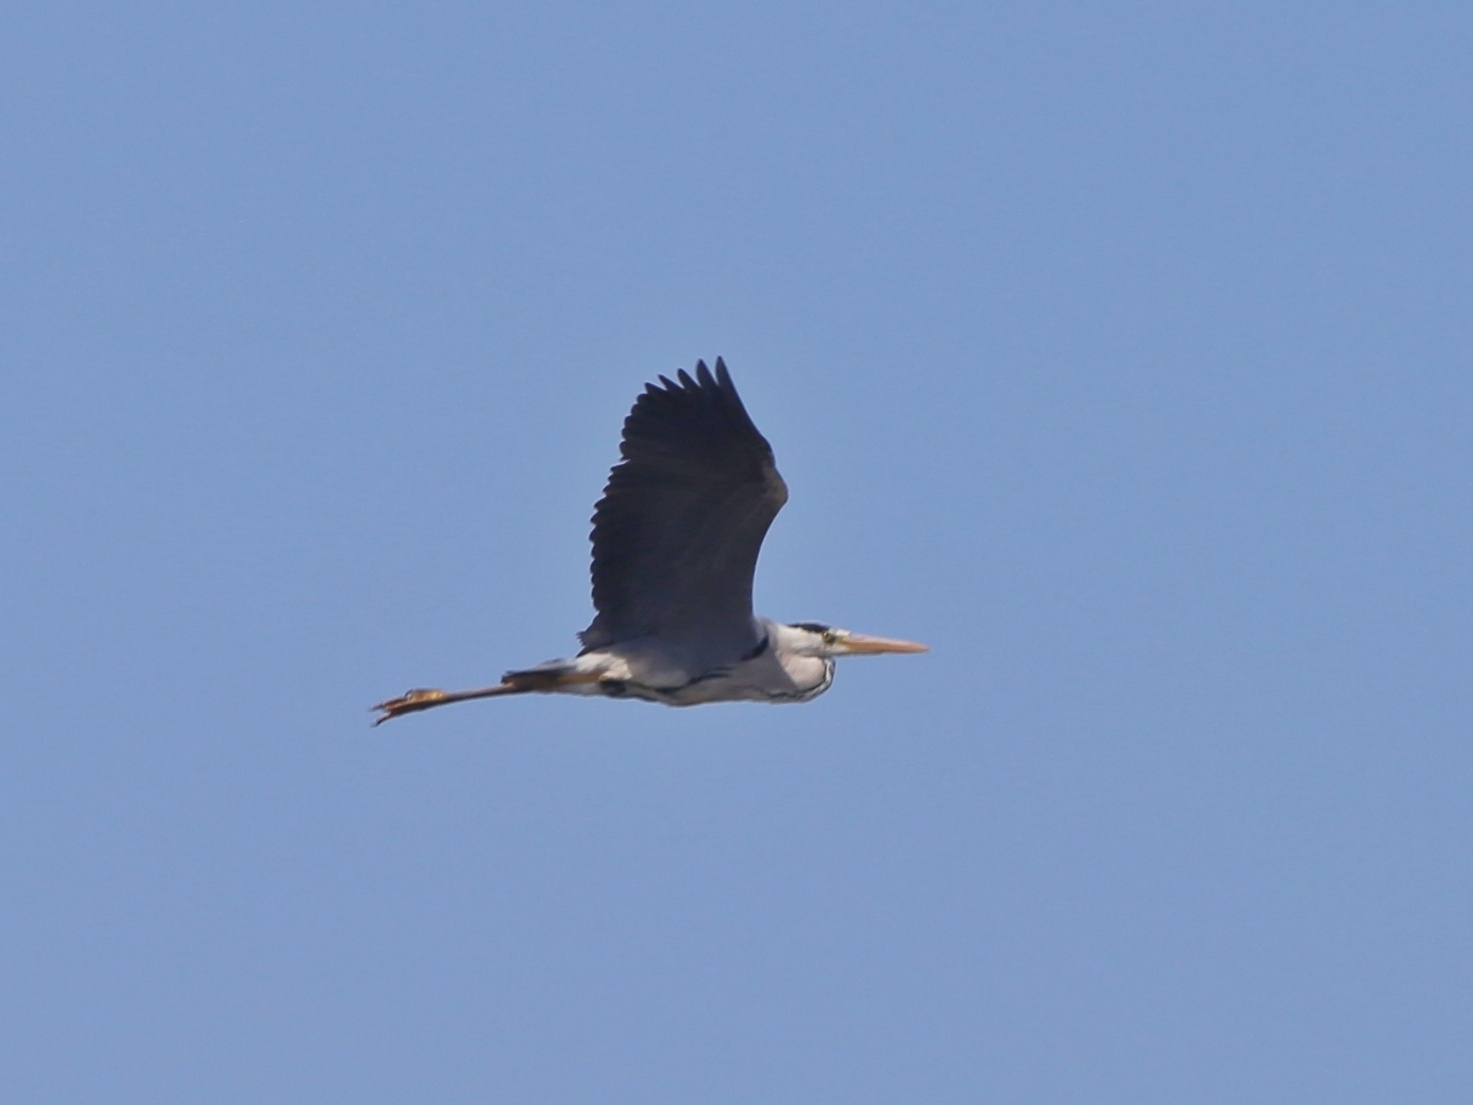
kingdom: Animalia
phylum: Chordata
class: Aves
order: Pelecaniformes
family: Ardeidae
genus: Ardea
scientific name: Ardea cinerea
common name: Grey heron
